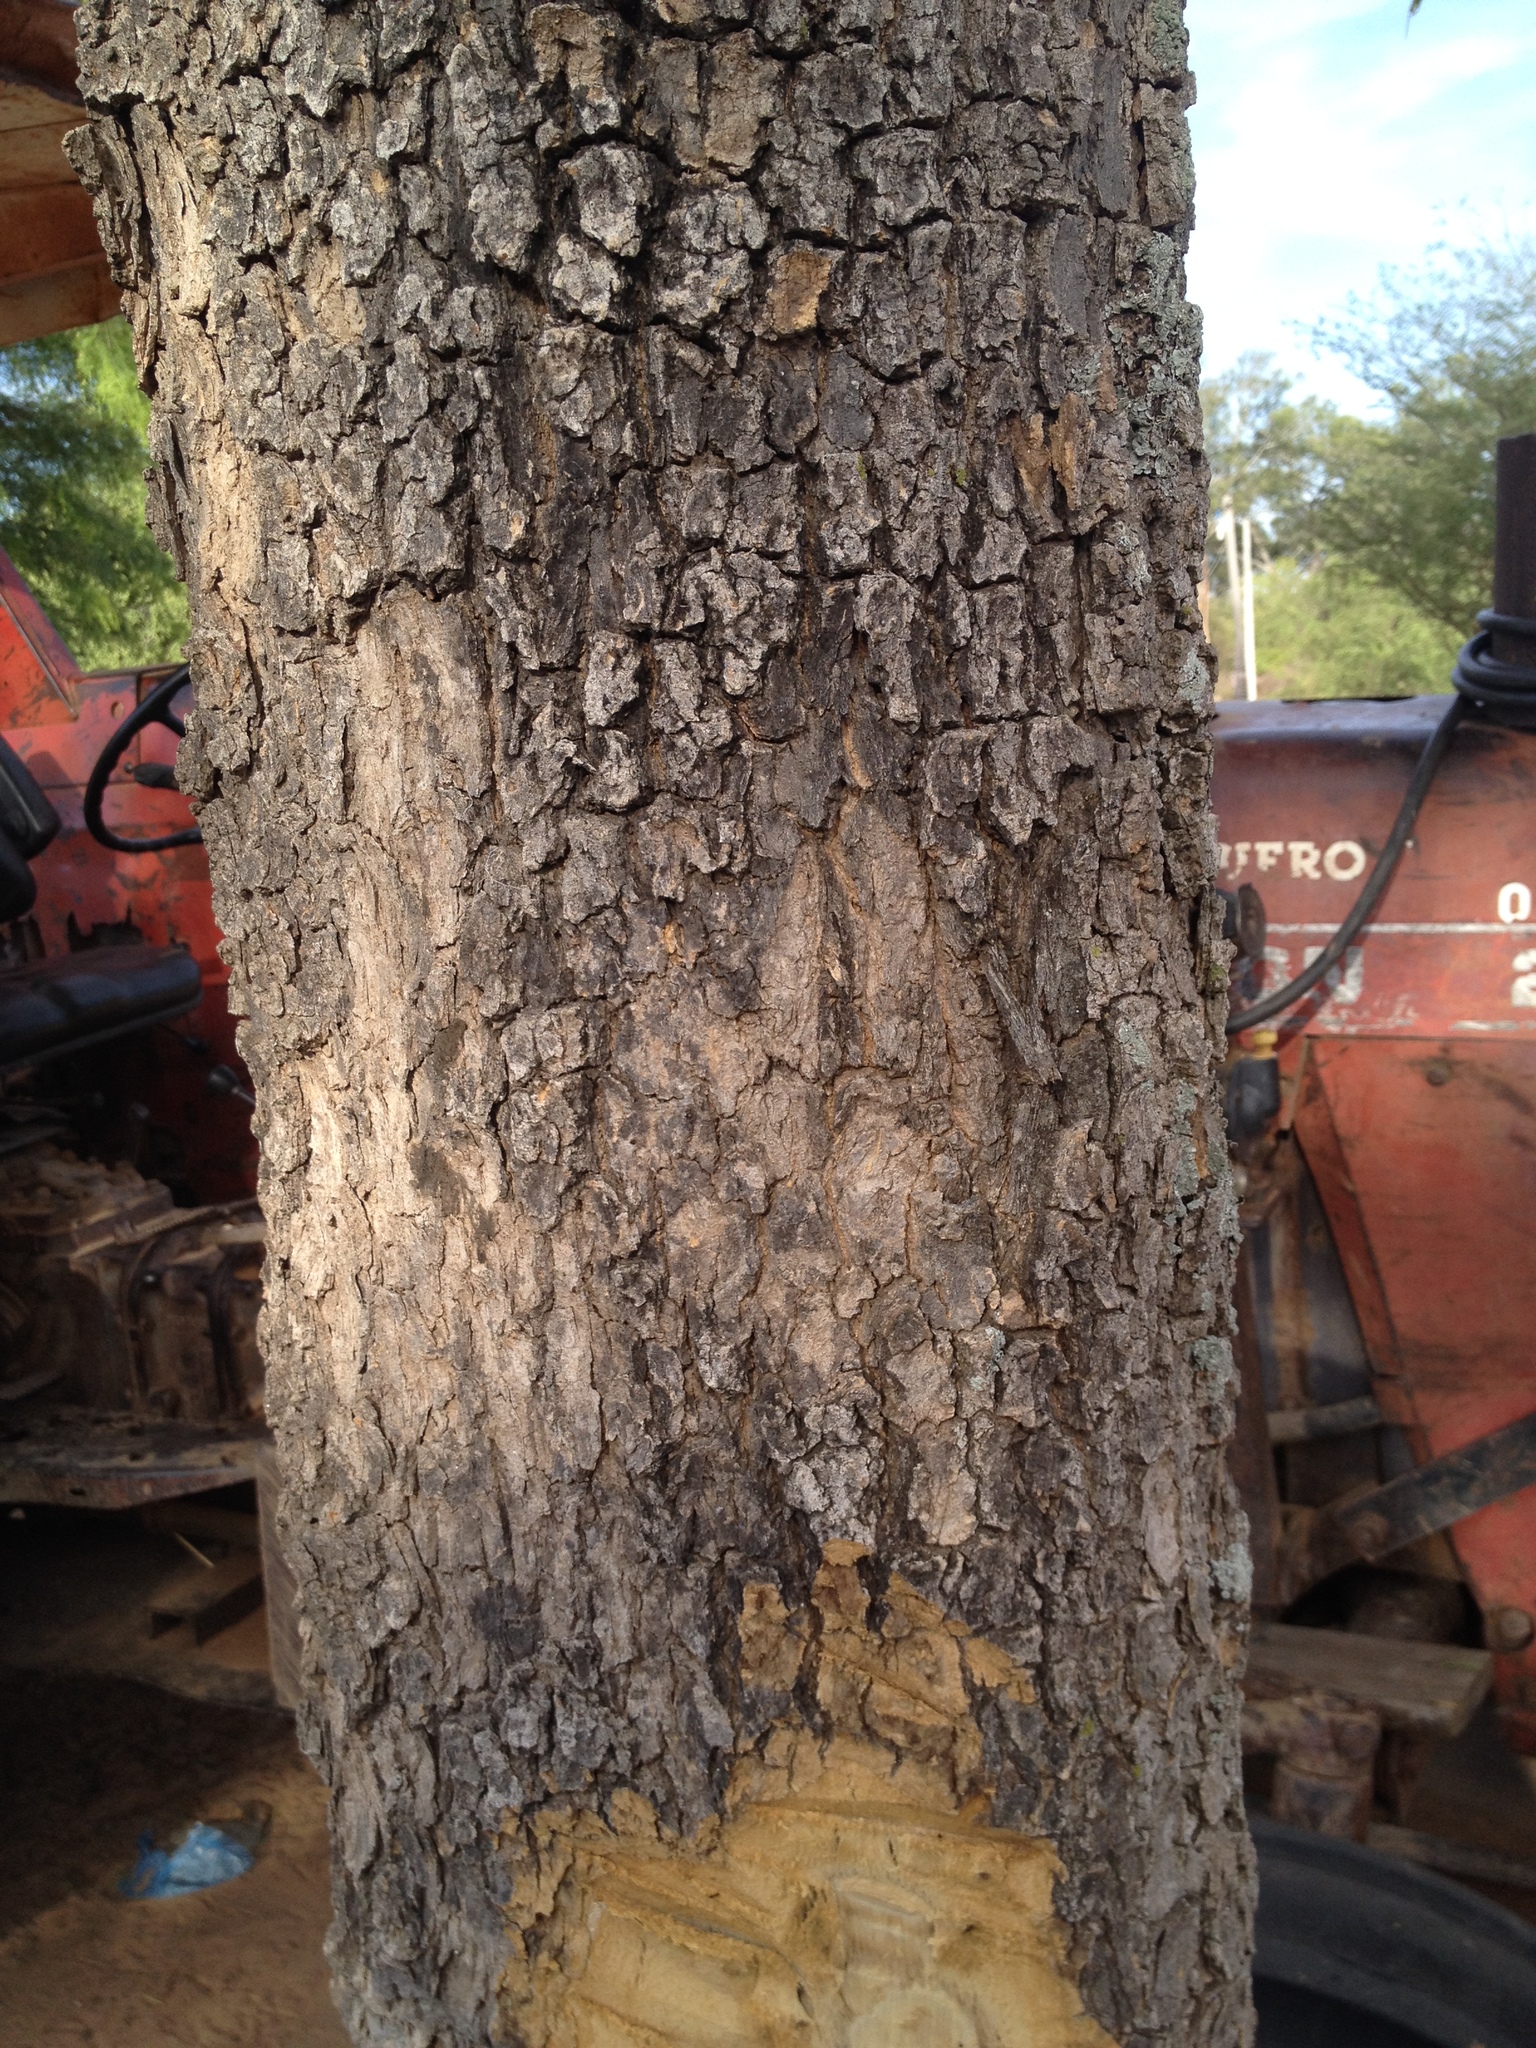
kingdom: Plantae
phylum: Tracheophyta
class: Magnoliopsida
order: Gentianales
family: Apocynaceae
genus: Aspidosperma
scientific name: Aspidosperma quebracho-blanco
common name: White quebracho
